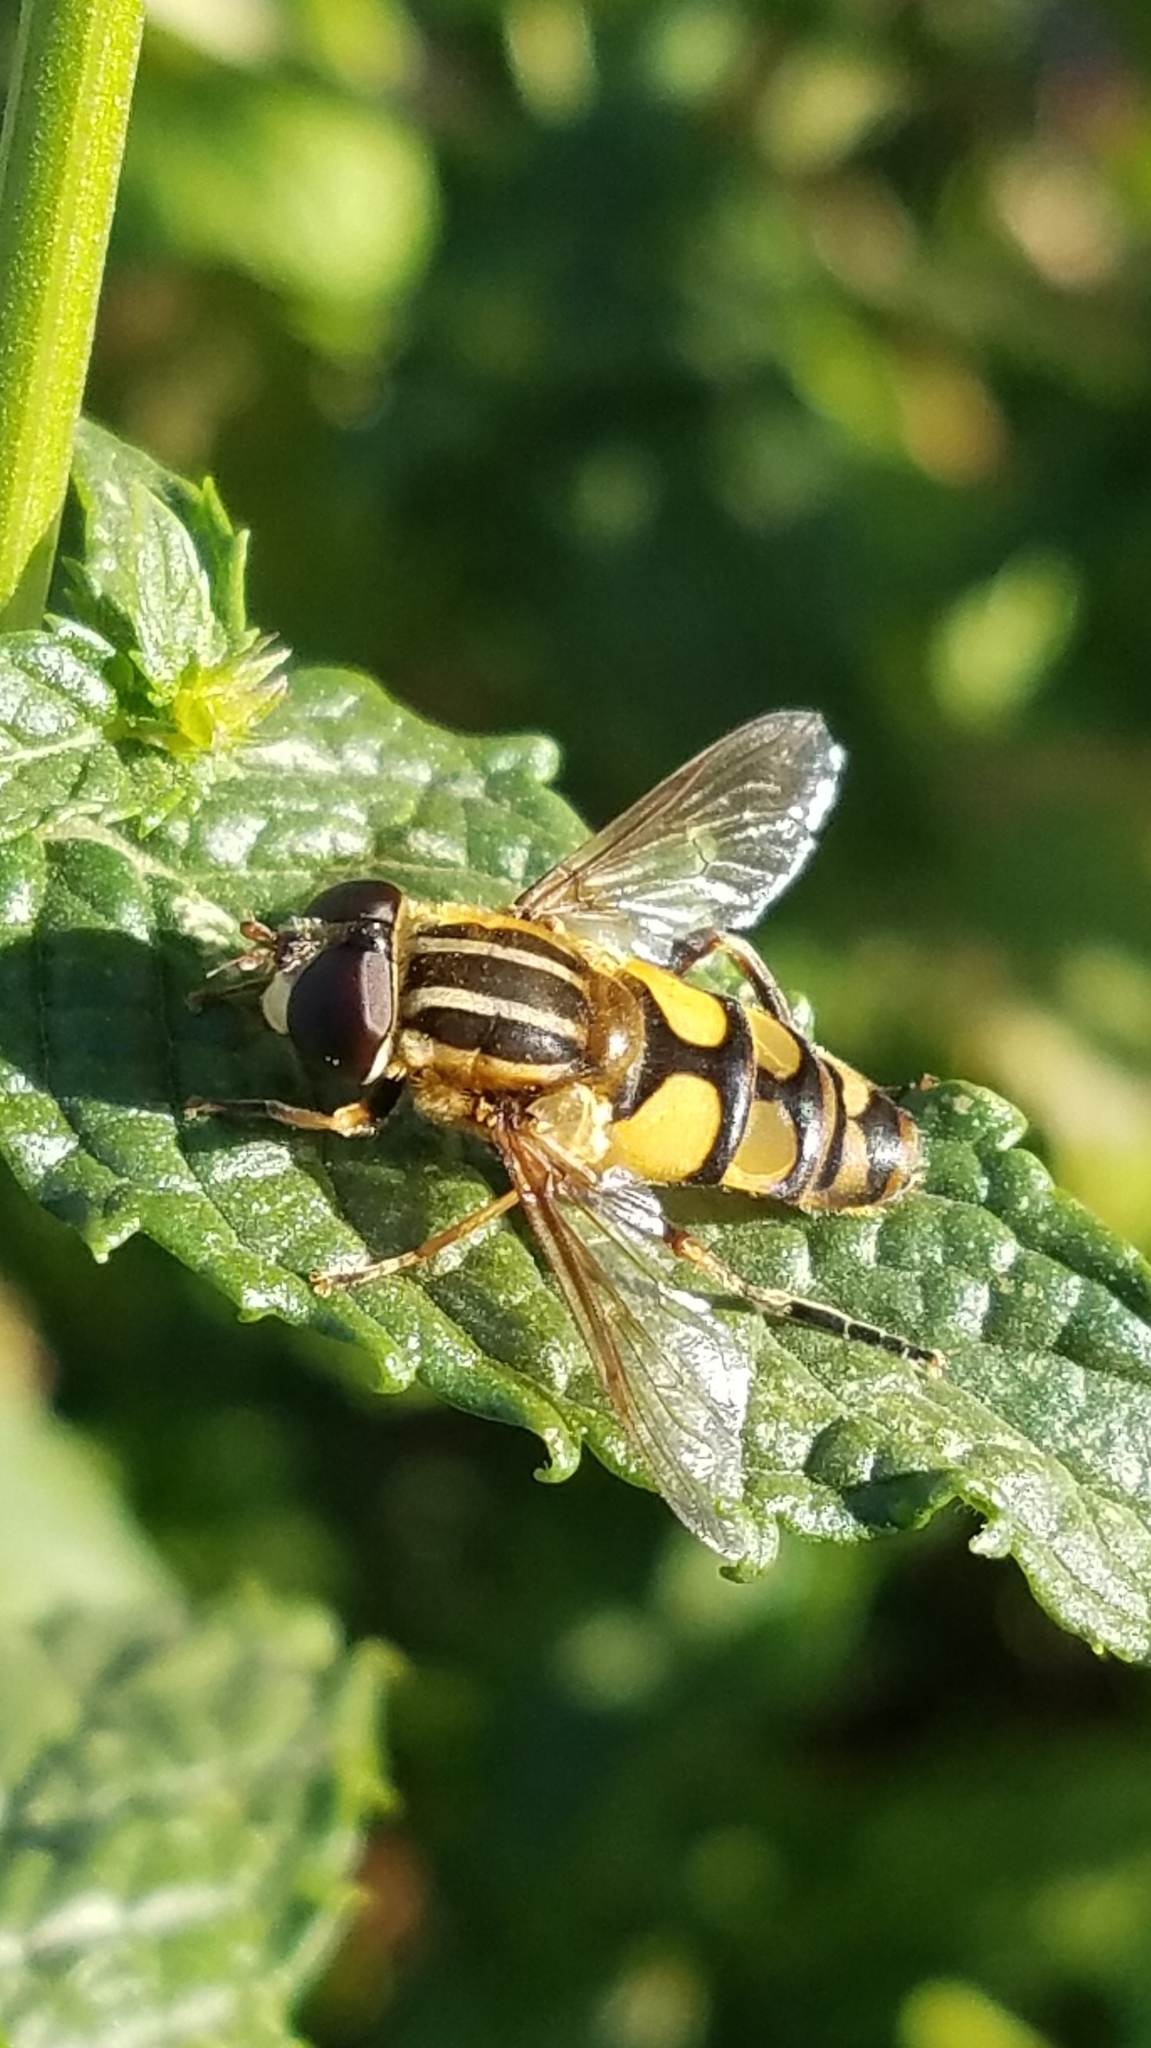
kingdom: Animalia
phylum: Arthropoda
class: Insecta
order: Diptera
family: Syrphidae
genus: Helophilus
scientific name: Helophilus fasciatus
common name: Narrow-headed marsh fly
